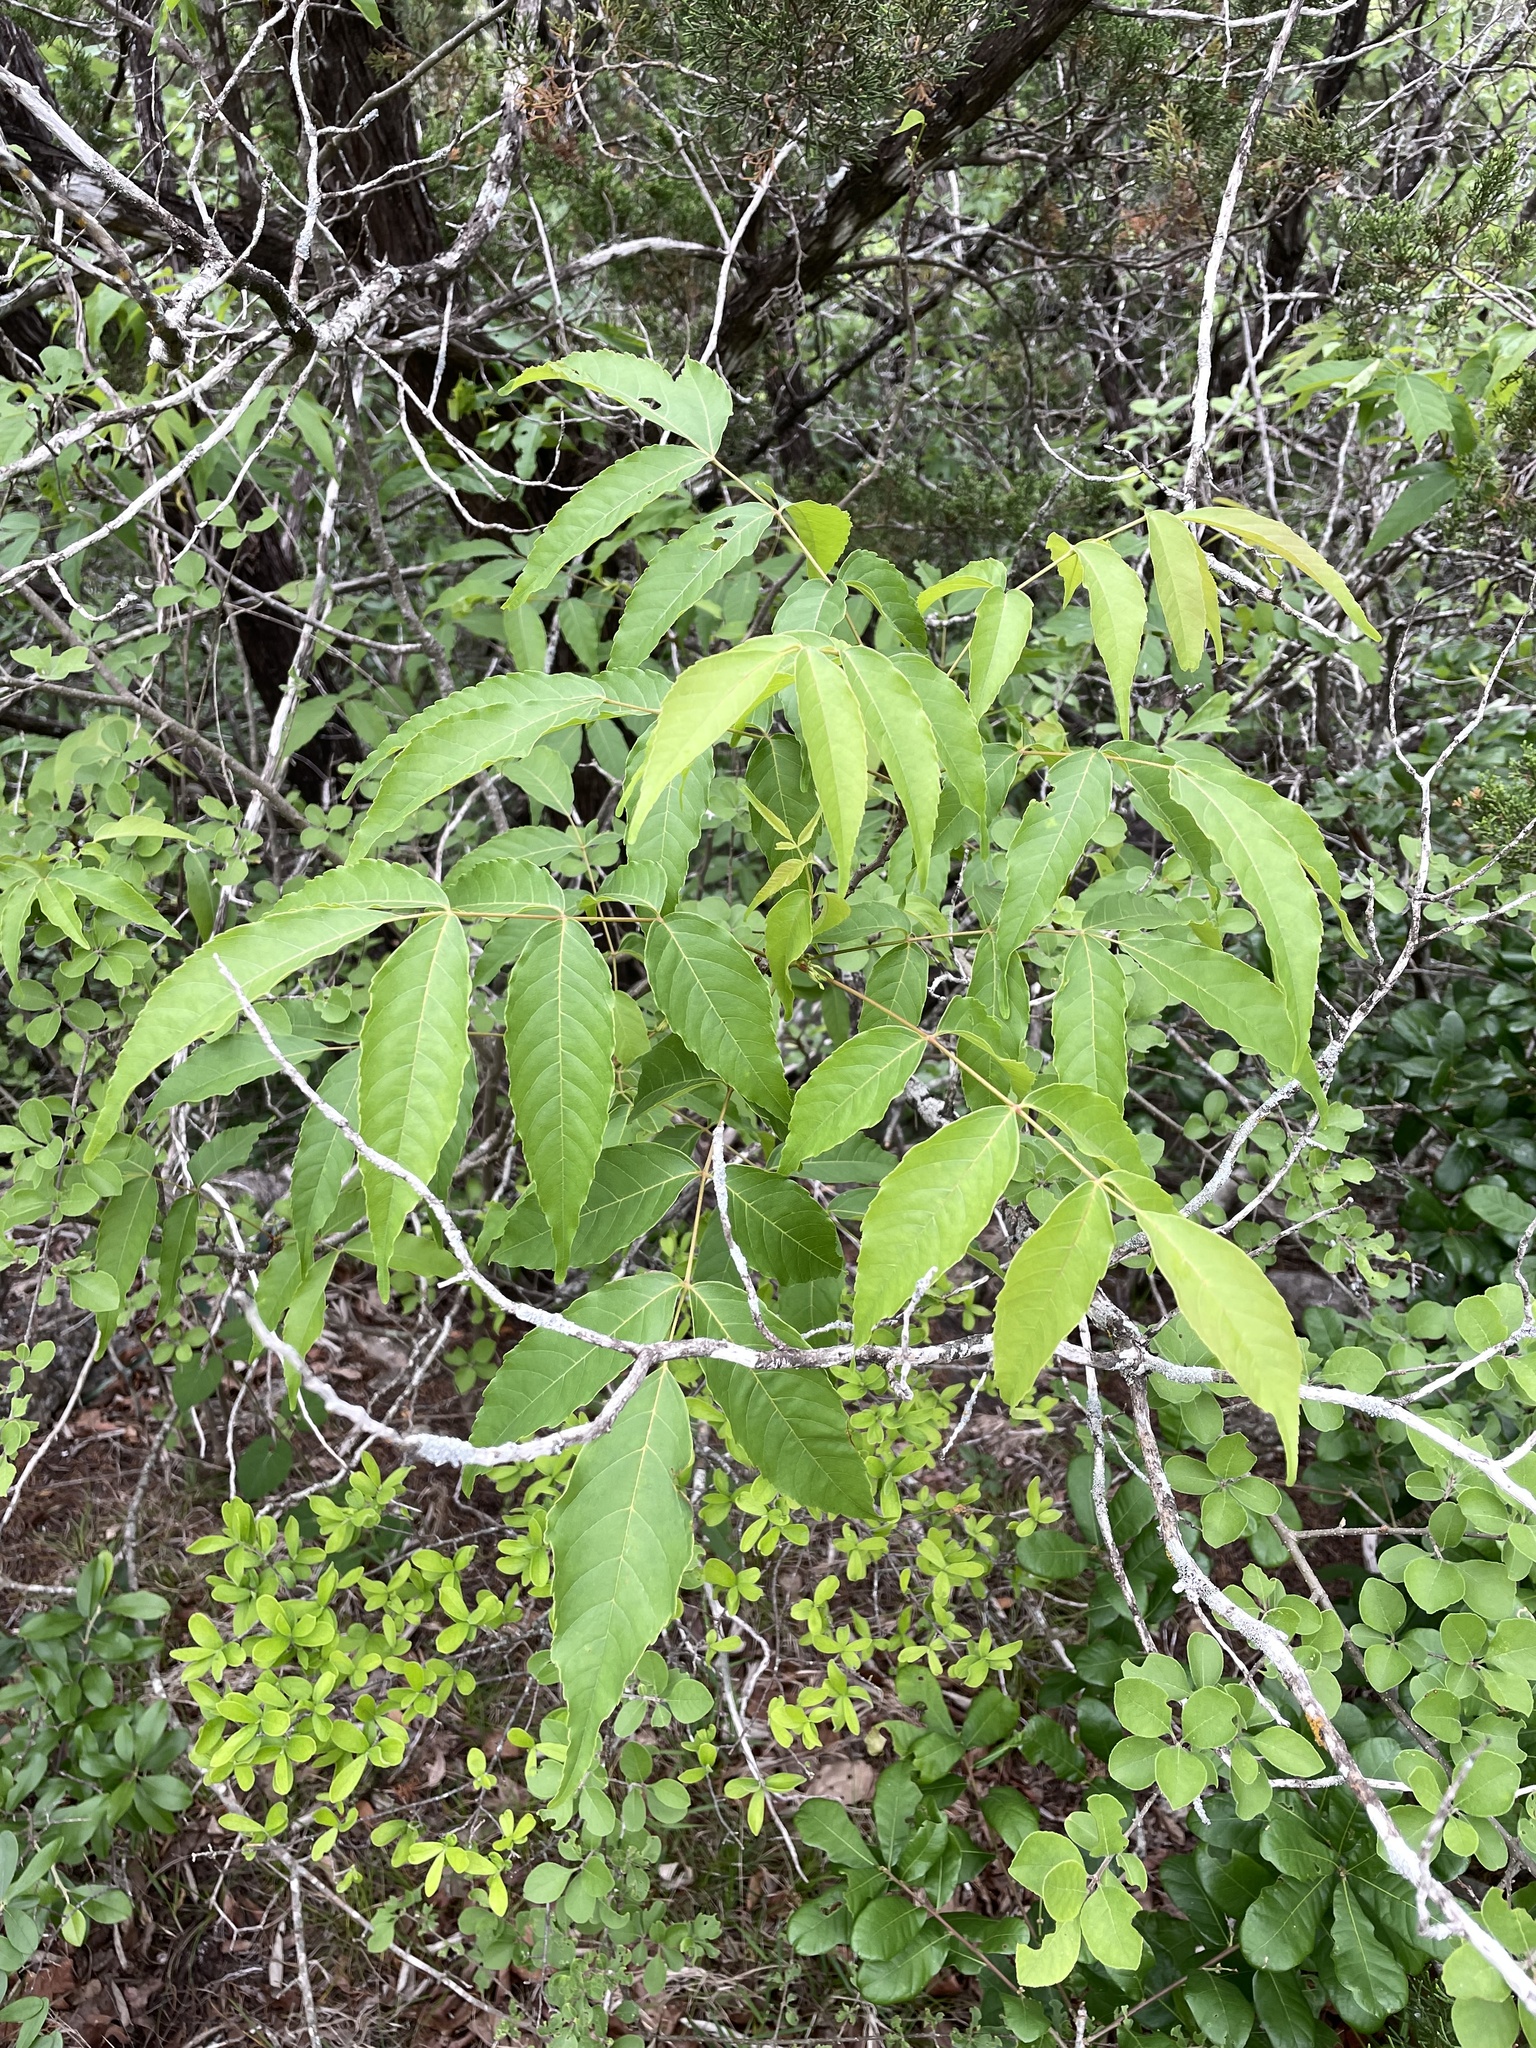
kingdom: Plantae
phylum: Tracheophyta
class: Magnoliopsida
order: Sapindales
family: Sapindaceae
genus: Ungnadia
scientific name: Ungnadia speciosa
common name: Texas-buckeye
